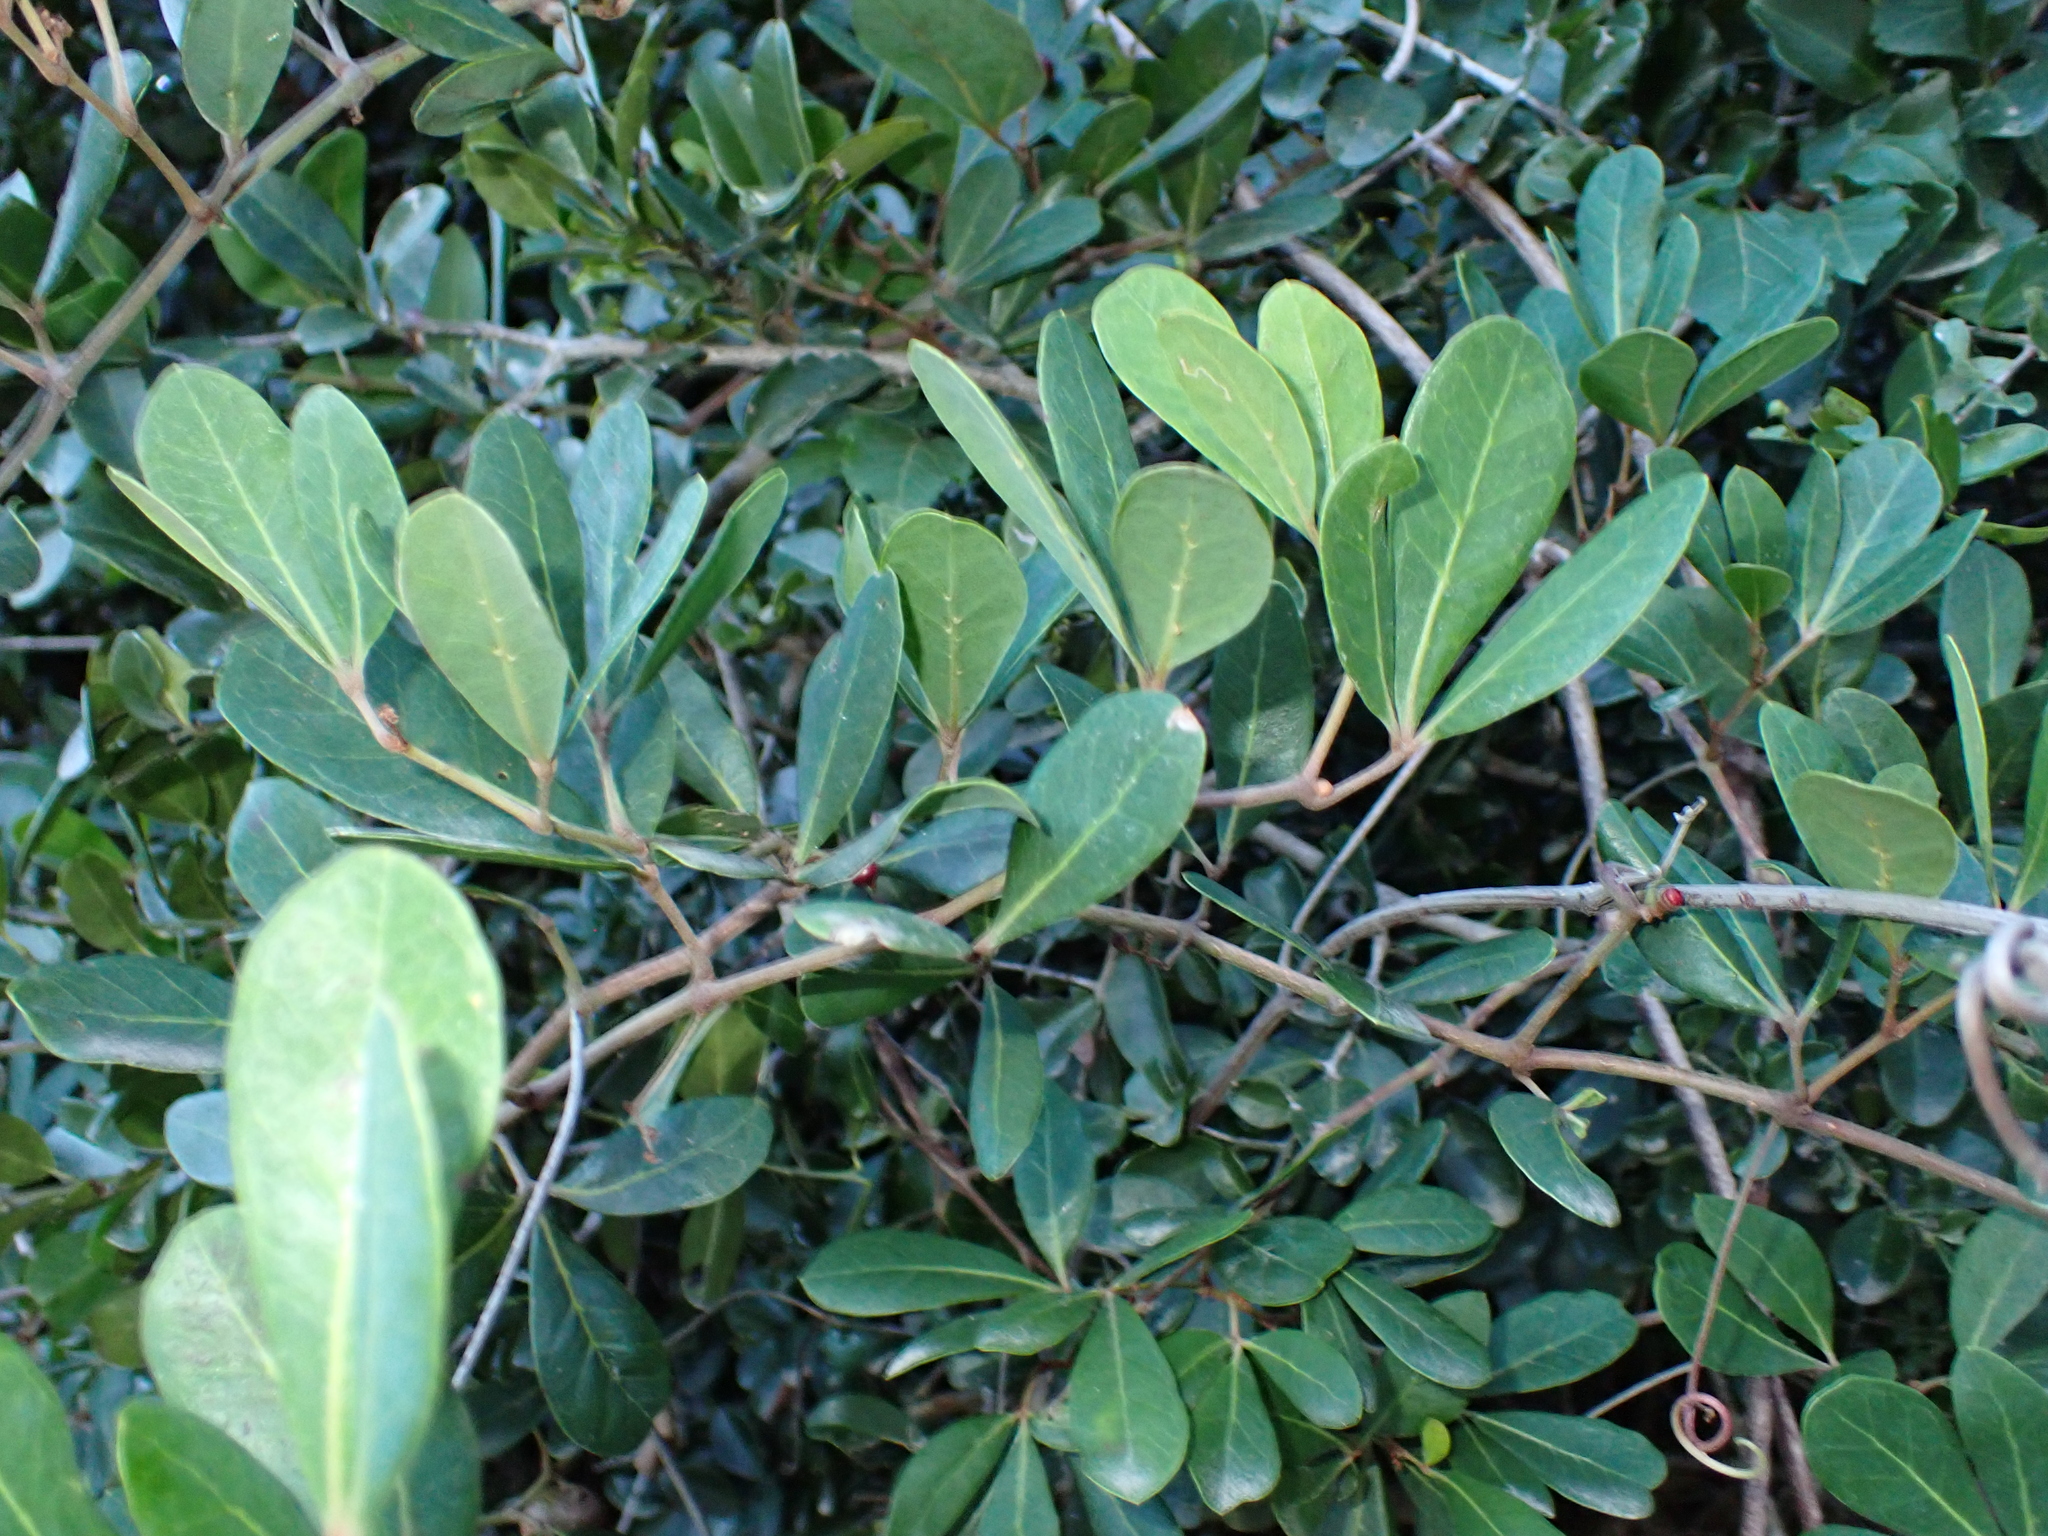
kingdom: Plantae
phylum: Tracheophyta
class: Magnoliopsida
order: Vitales
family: Vitaceae
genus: Rhoicissus
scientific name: Rhoicissus digitata
